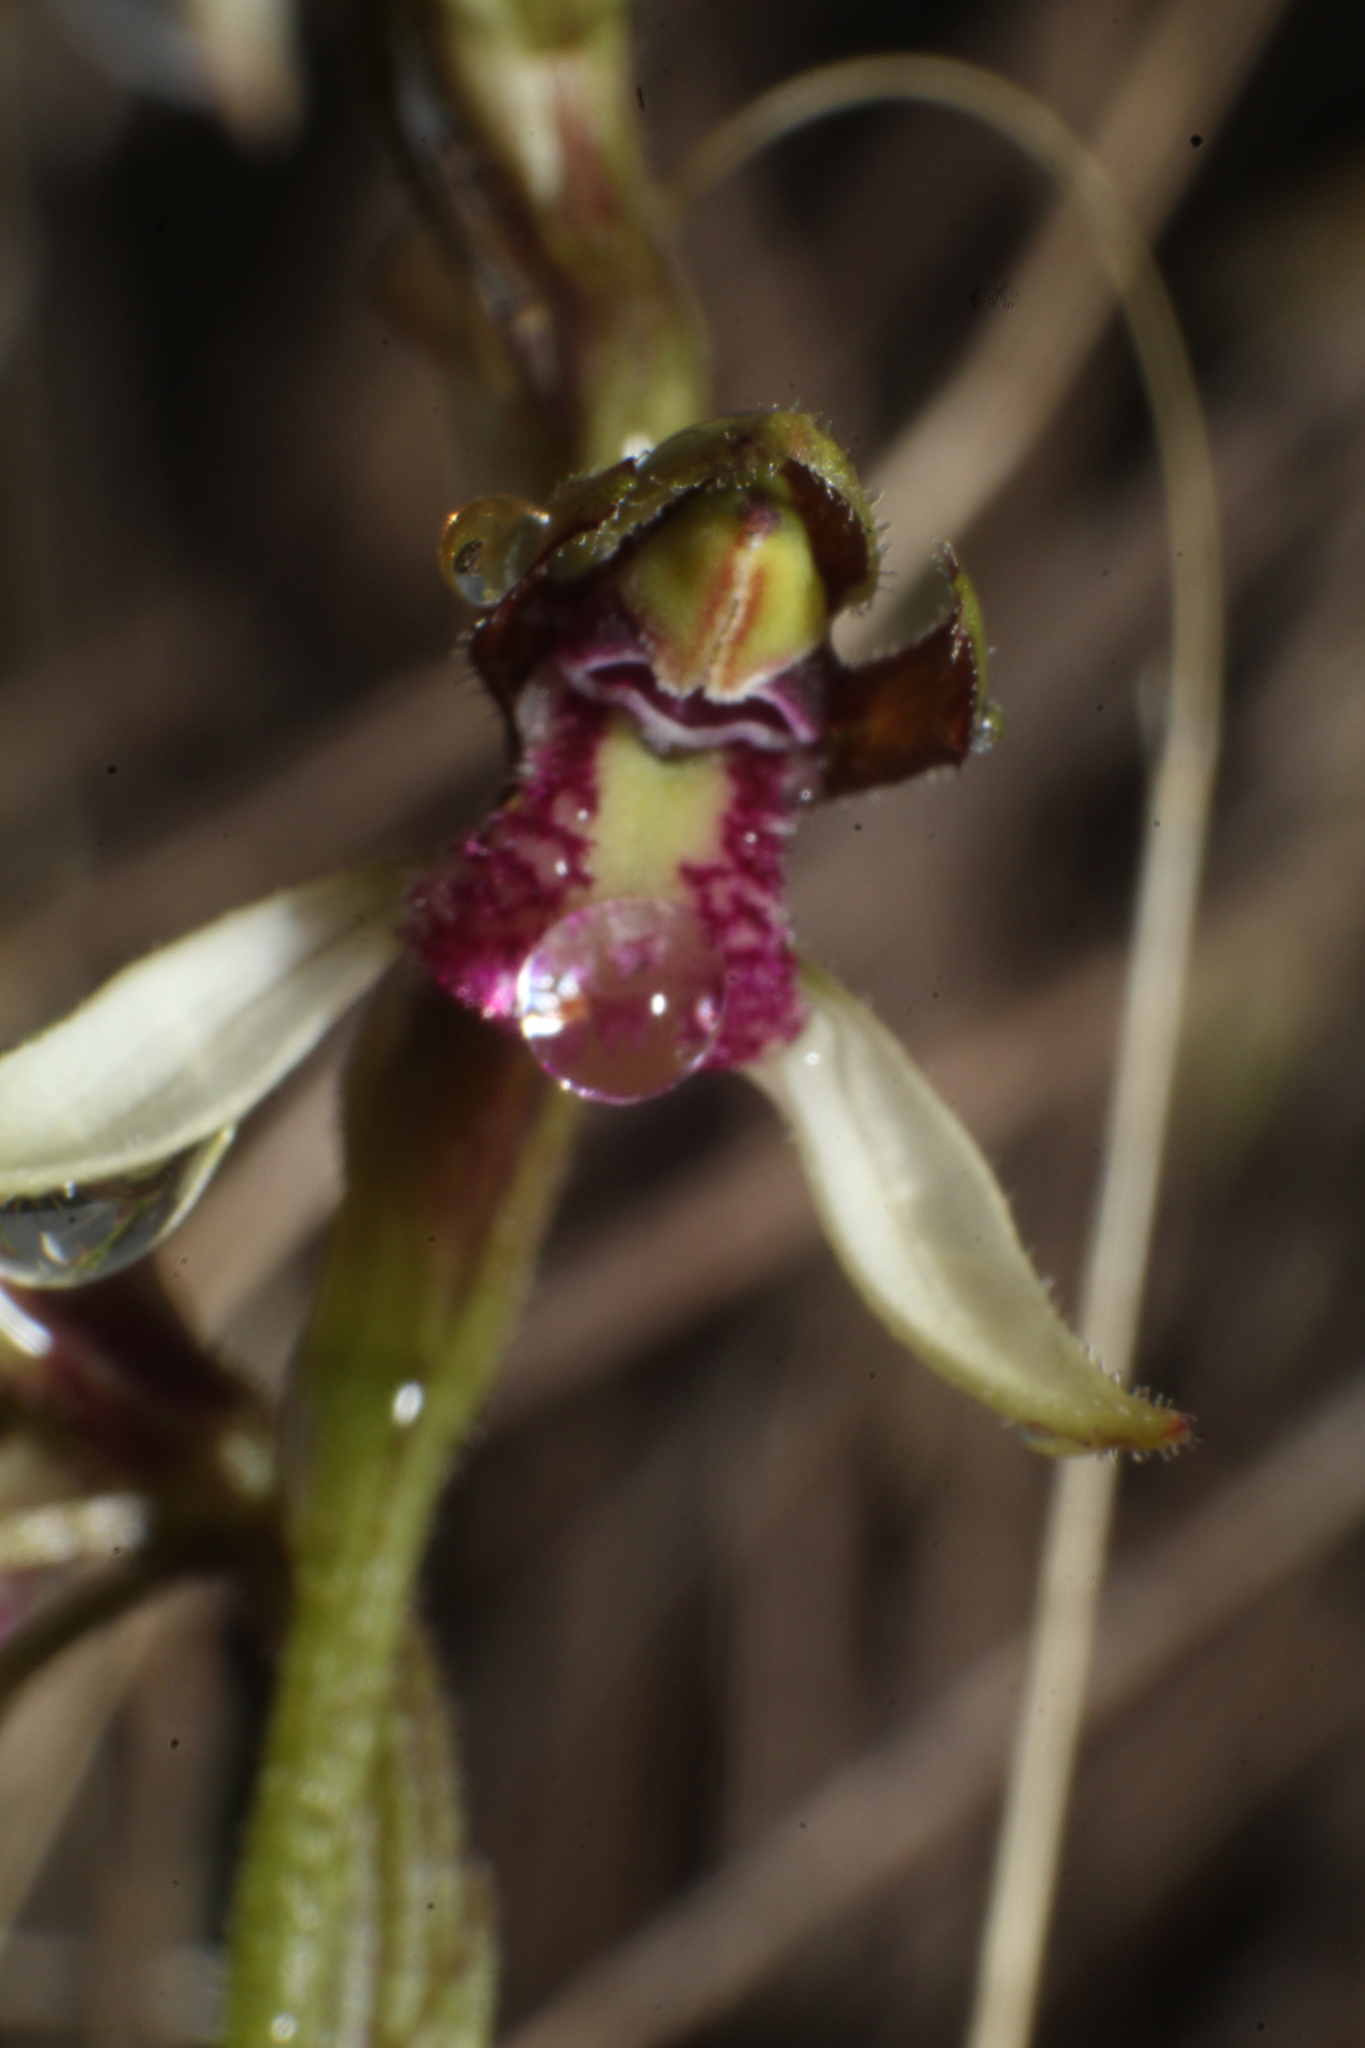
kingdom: Plantae
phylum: Tracheophyta
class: Liliopsida
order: Asparagales
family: Orchidaceae
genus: Eriochilus
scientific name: Eriochilus pulchellus
